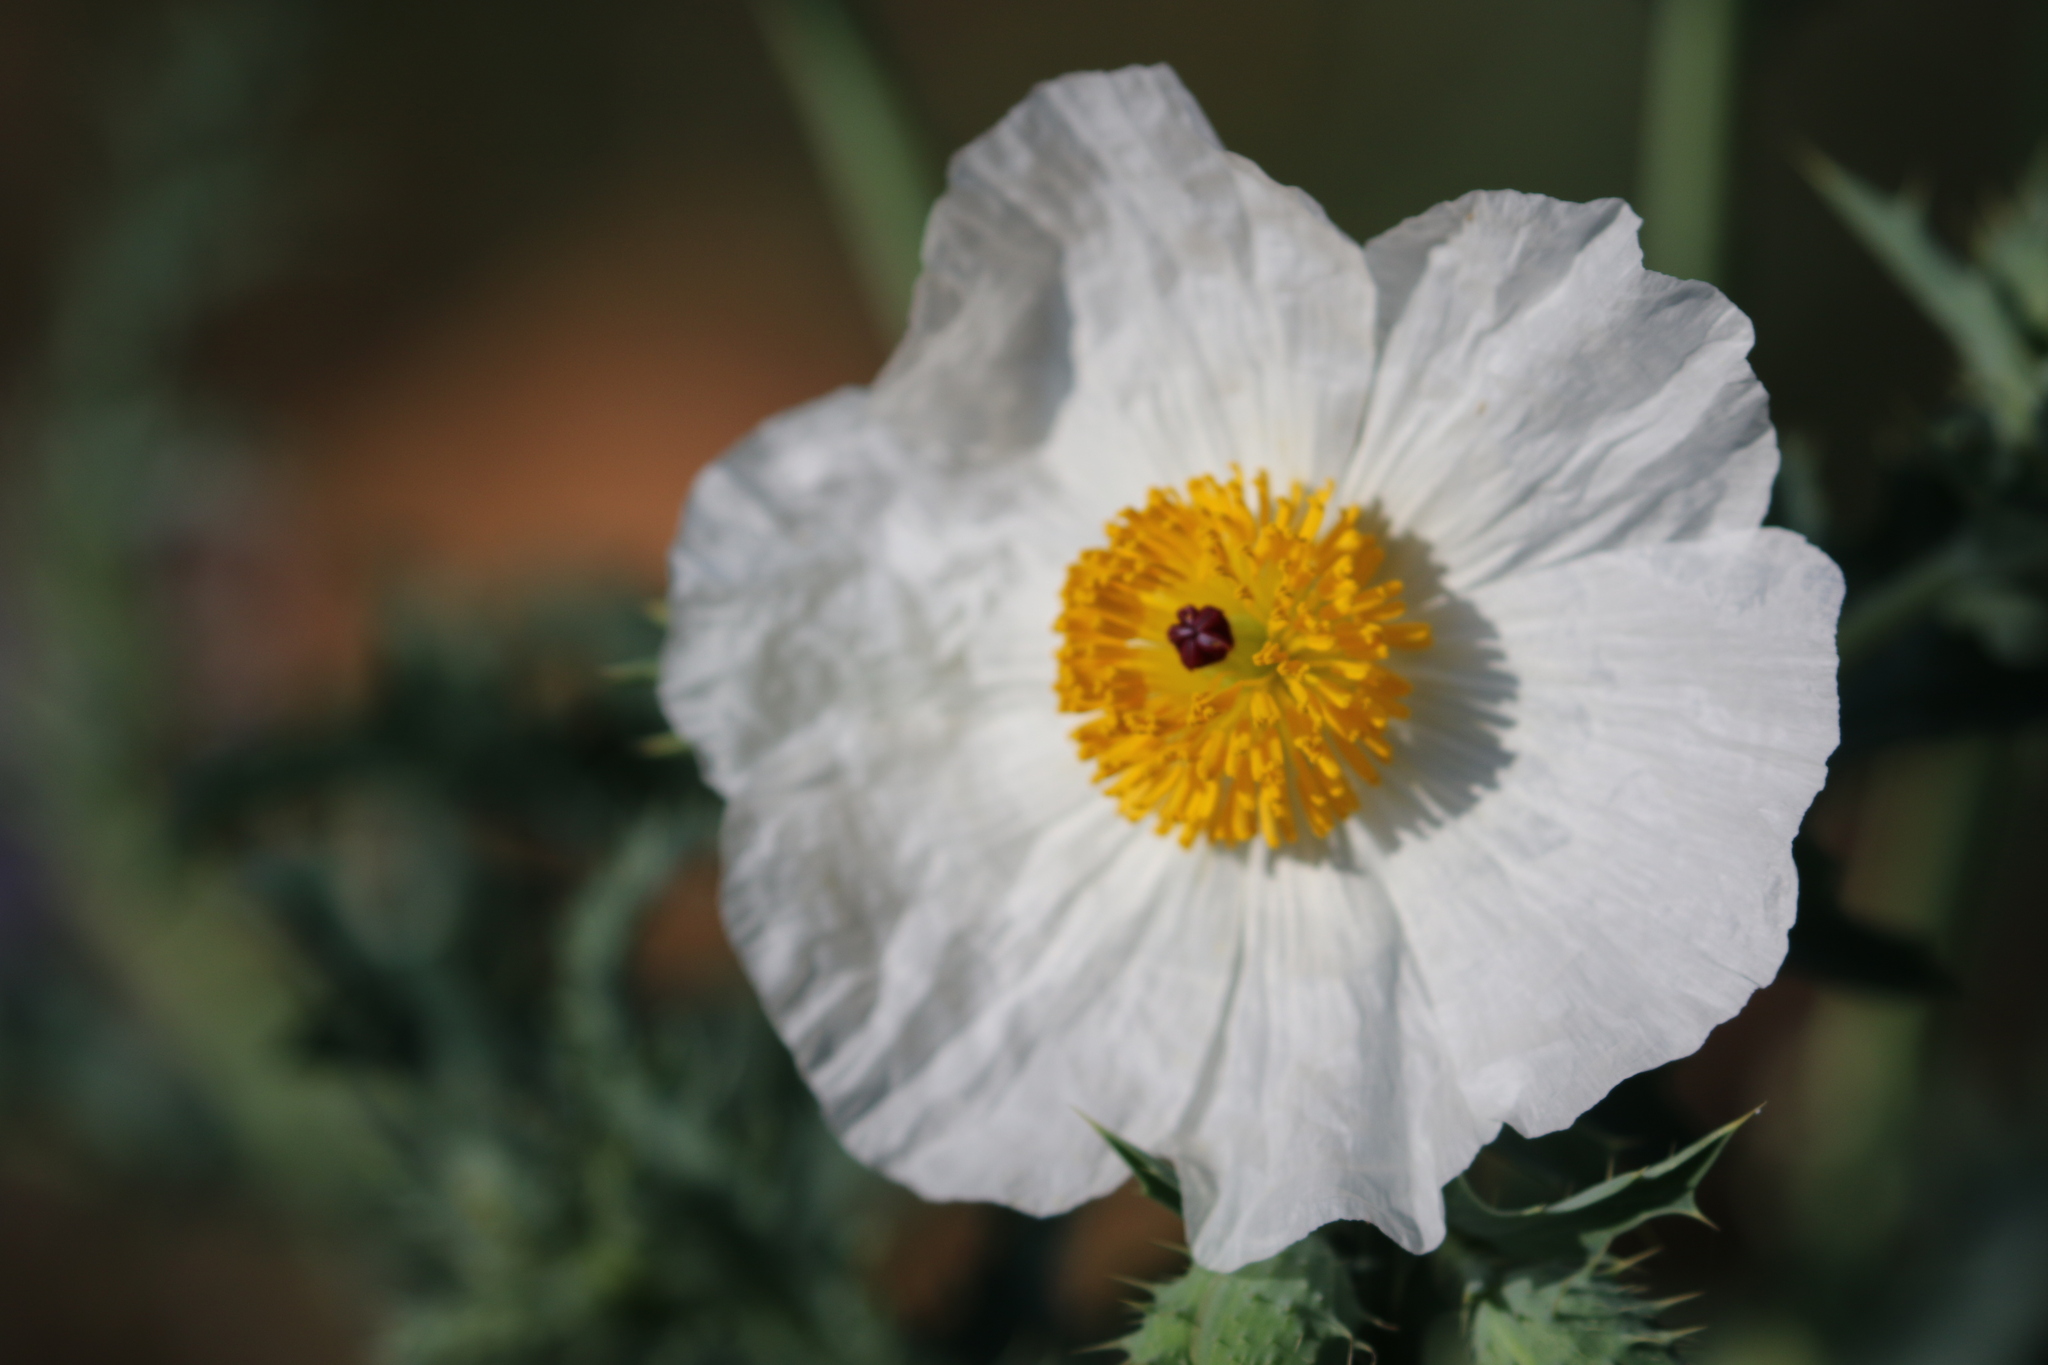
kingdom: Plantae
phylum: Tracheophyta
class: Magnoliopsida
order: Ranunculales
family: Papaveraceae
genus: Argemone
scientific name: Argemone albiflora
